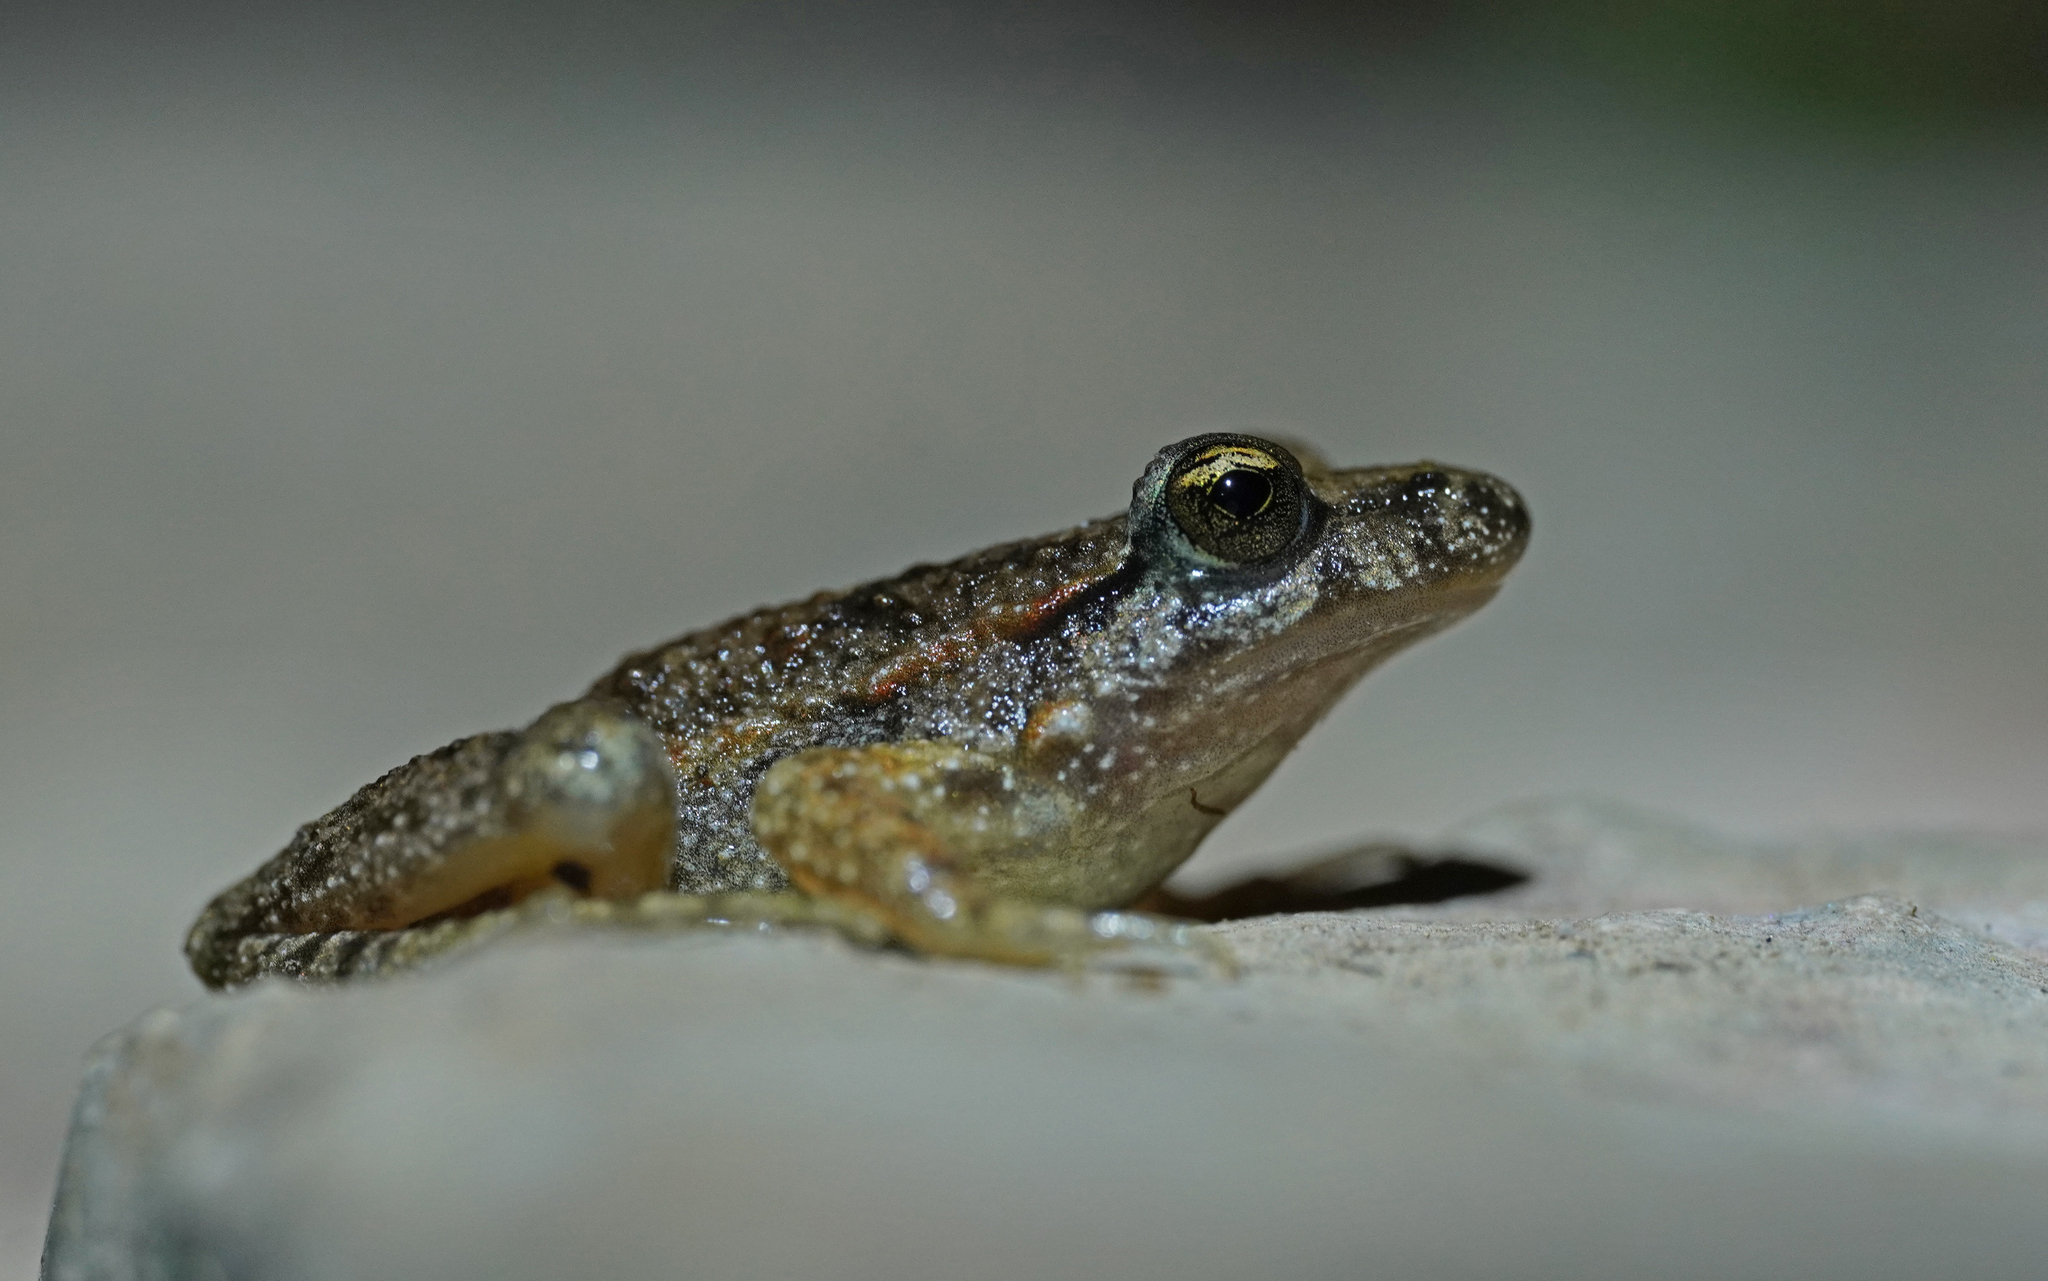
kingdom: Animalia
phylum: Chordata
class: Amphibia
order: Anura
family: Alytidae
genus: Discoglossus
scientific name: Discoglossus sardus
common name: Sardinia painted frog
